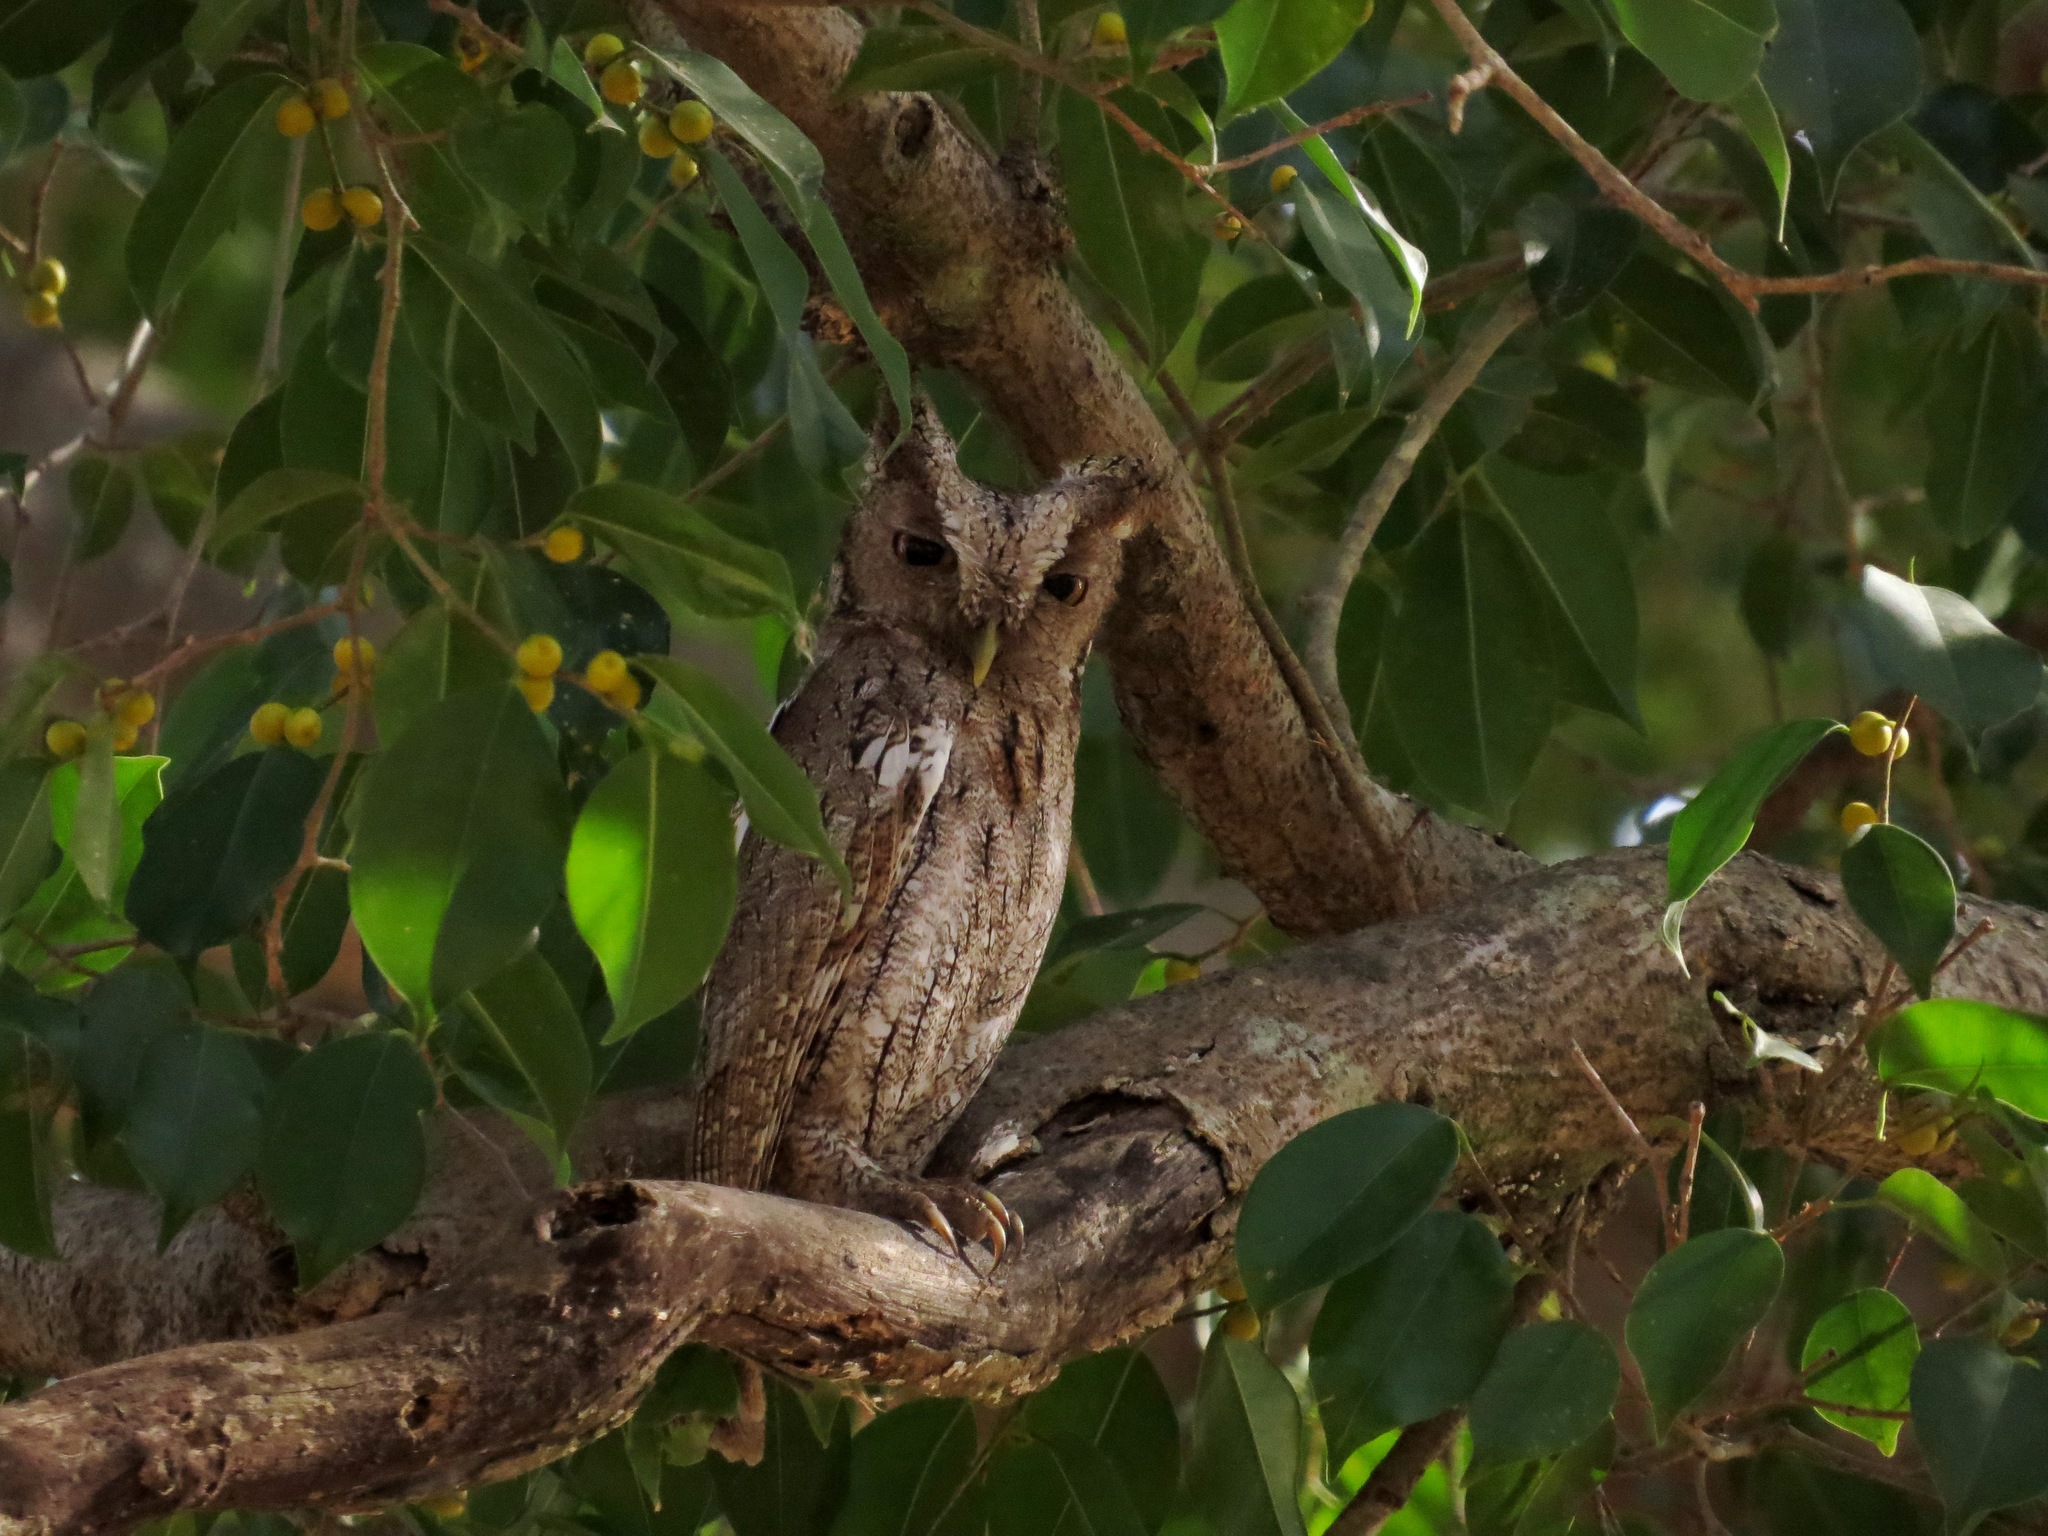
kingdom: Animalia
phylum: Chordata
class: Aves
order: Strigiformes
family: Strigidae
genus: Megascops
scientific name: Megascops cooperi
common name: Pacific screech-owl
